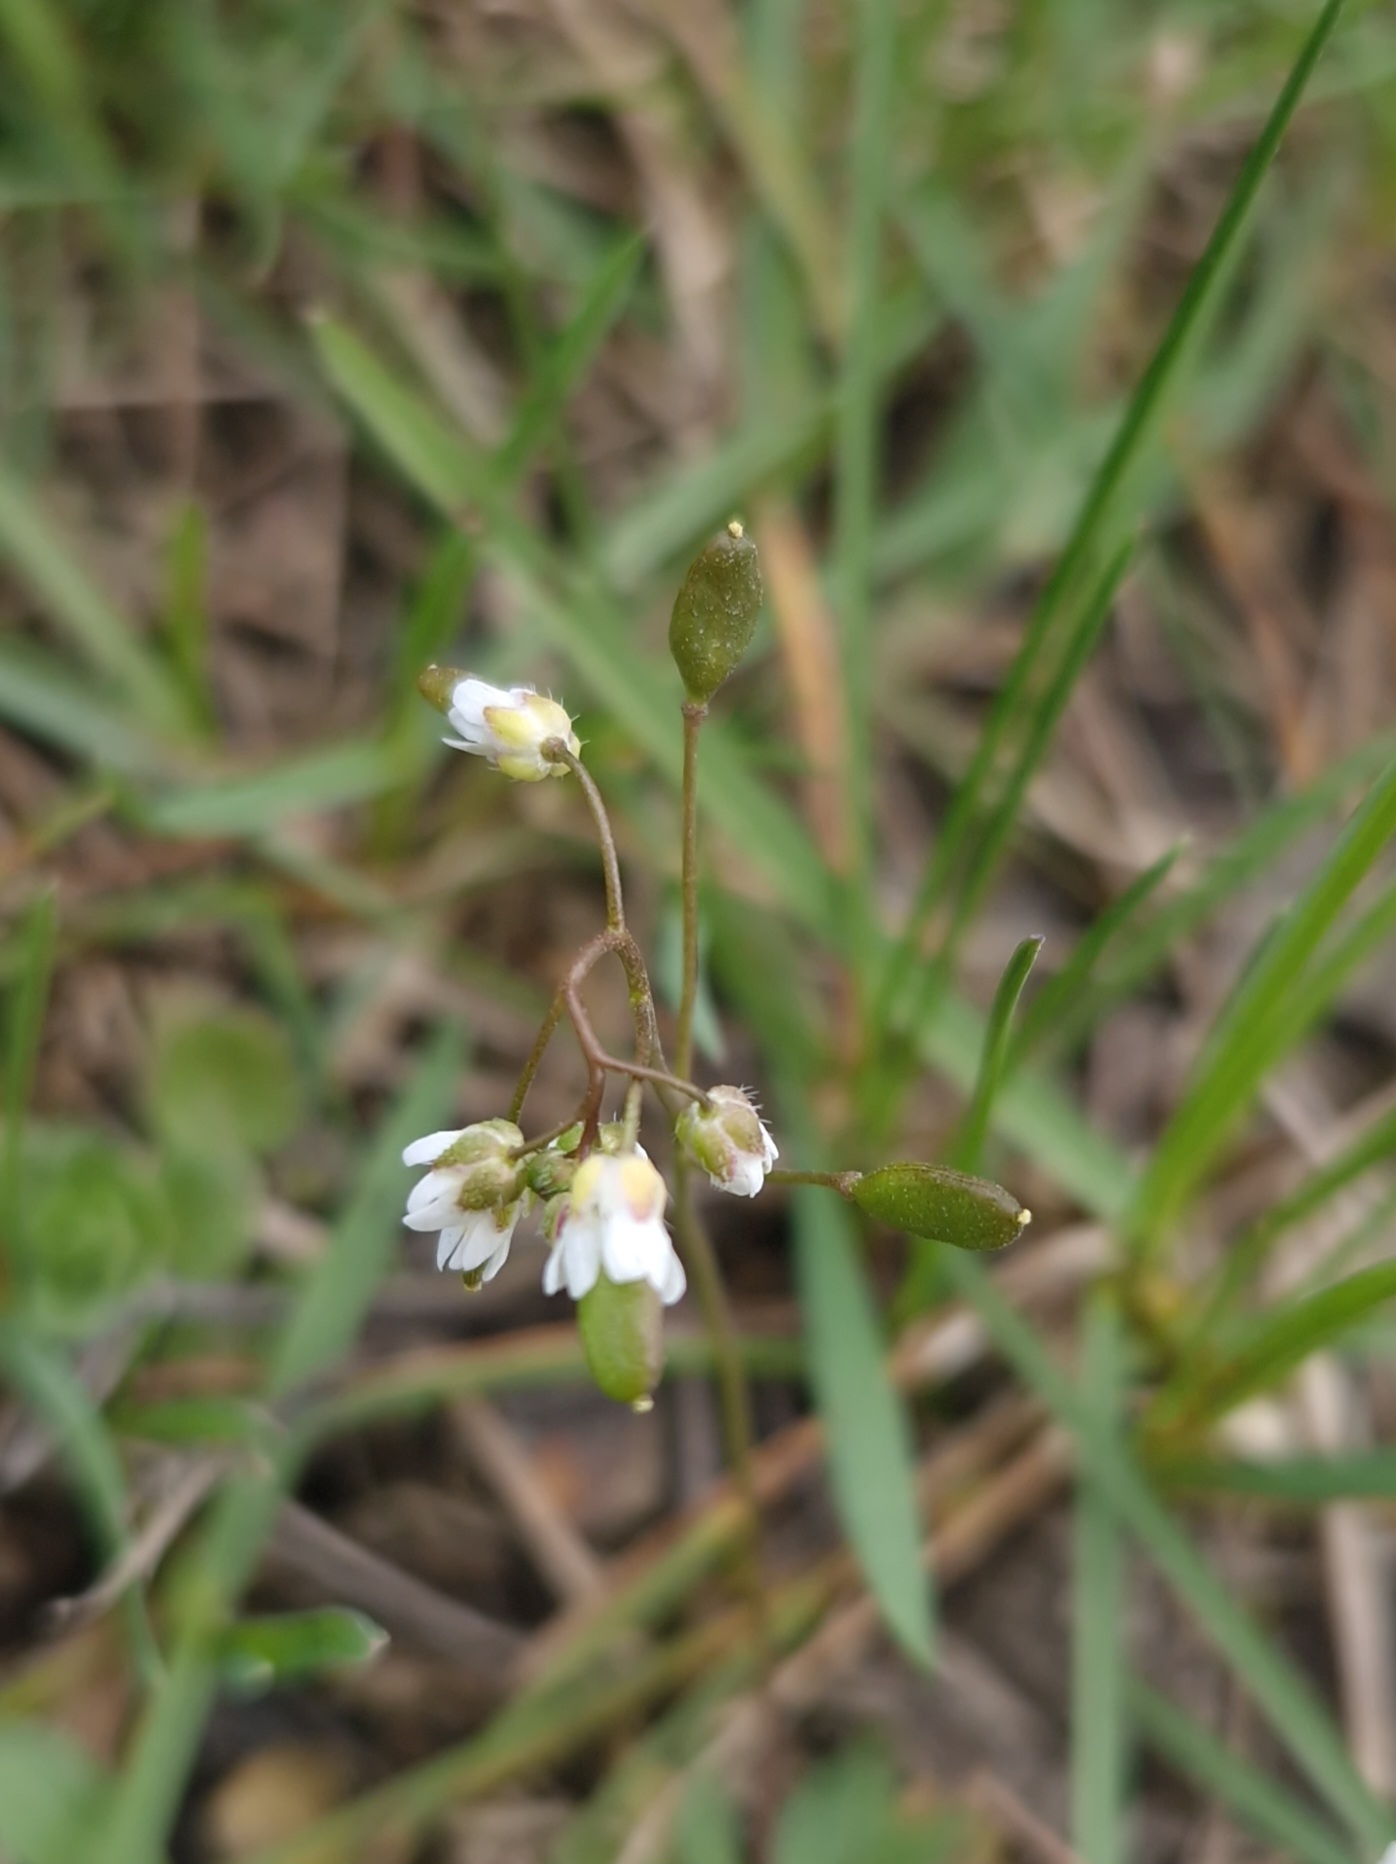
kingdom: Plantae
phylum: Tracheophyta
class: Magnoliopsida
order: Brassicales
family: Brassicaceae
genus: Draba
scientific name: Draba verna
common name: Spring draba
